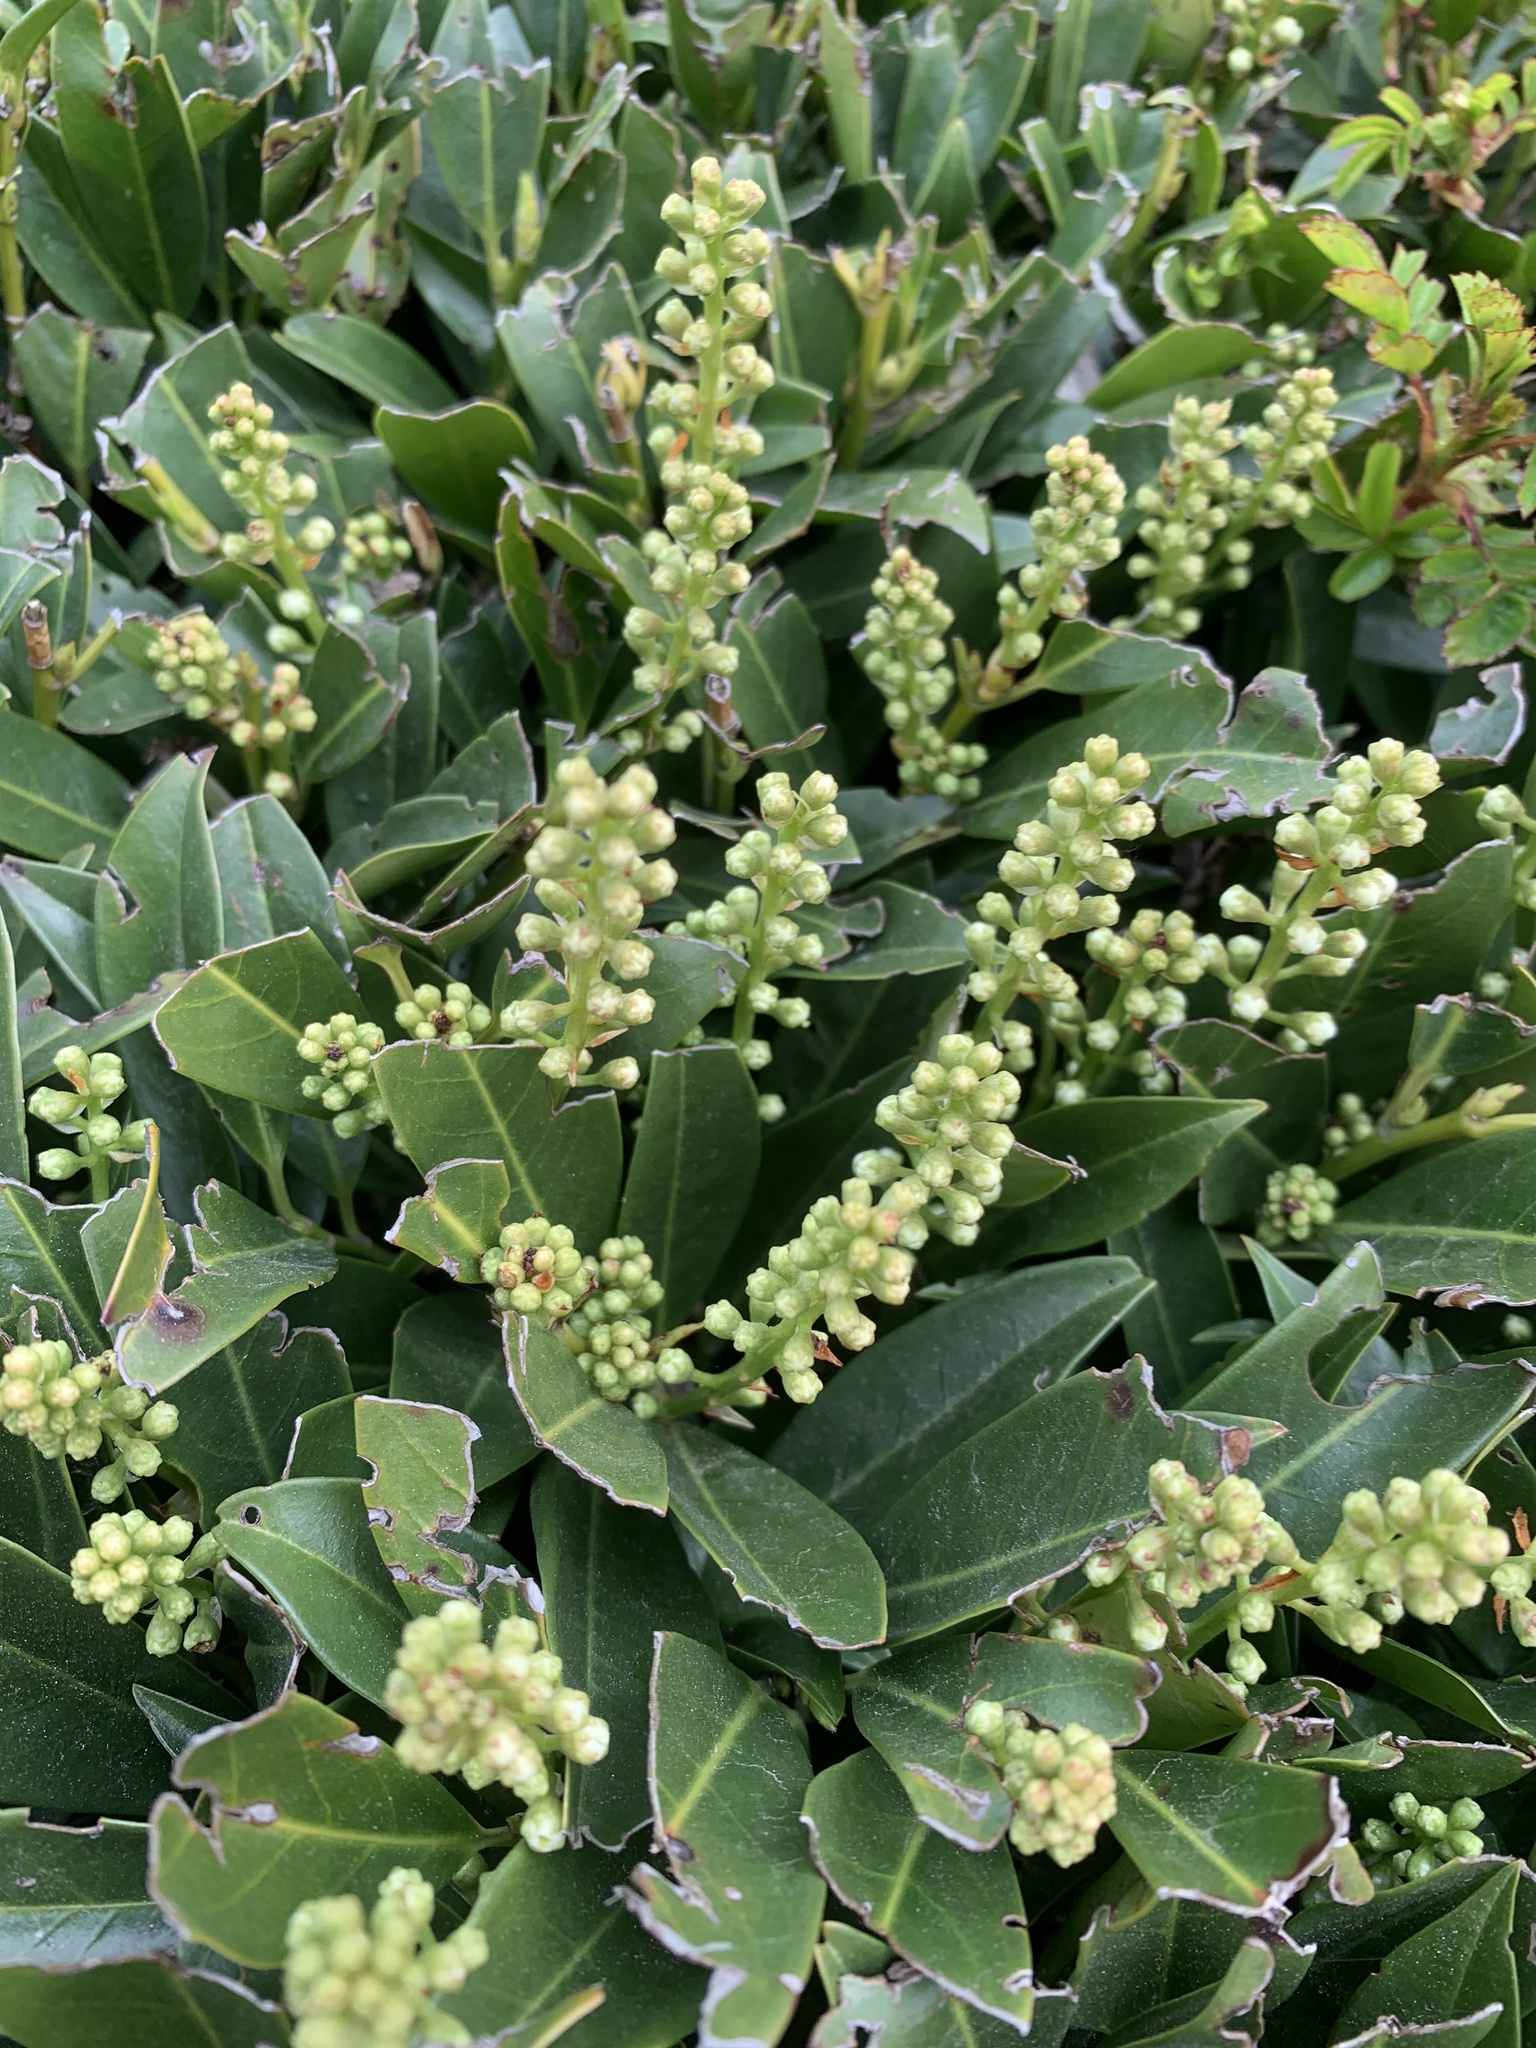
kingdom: Plantae
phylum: Tracheophyta
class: Magnoliopsida
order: Rosales
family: Rosaceae
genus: Prunus
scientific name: Prunus laurocerasus
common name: Cherry laurel
